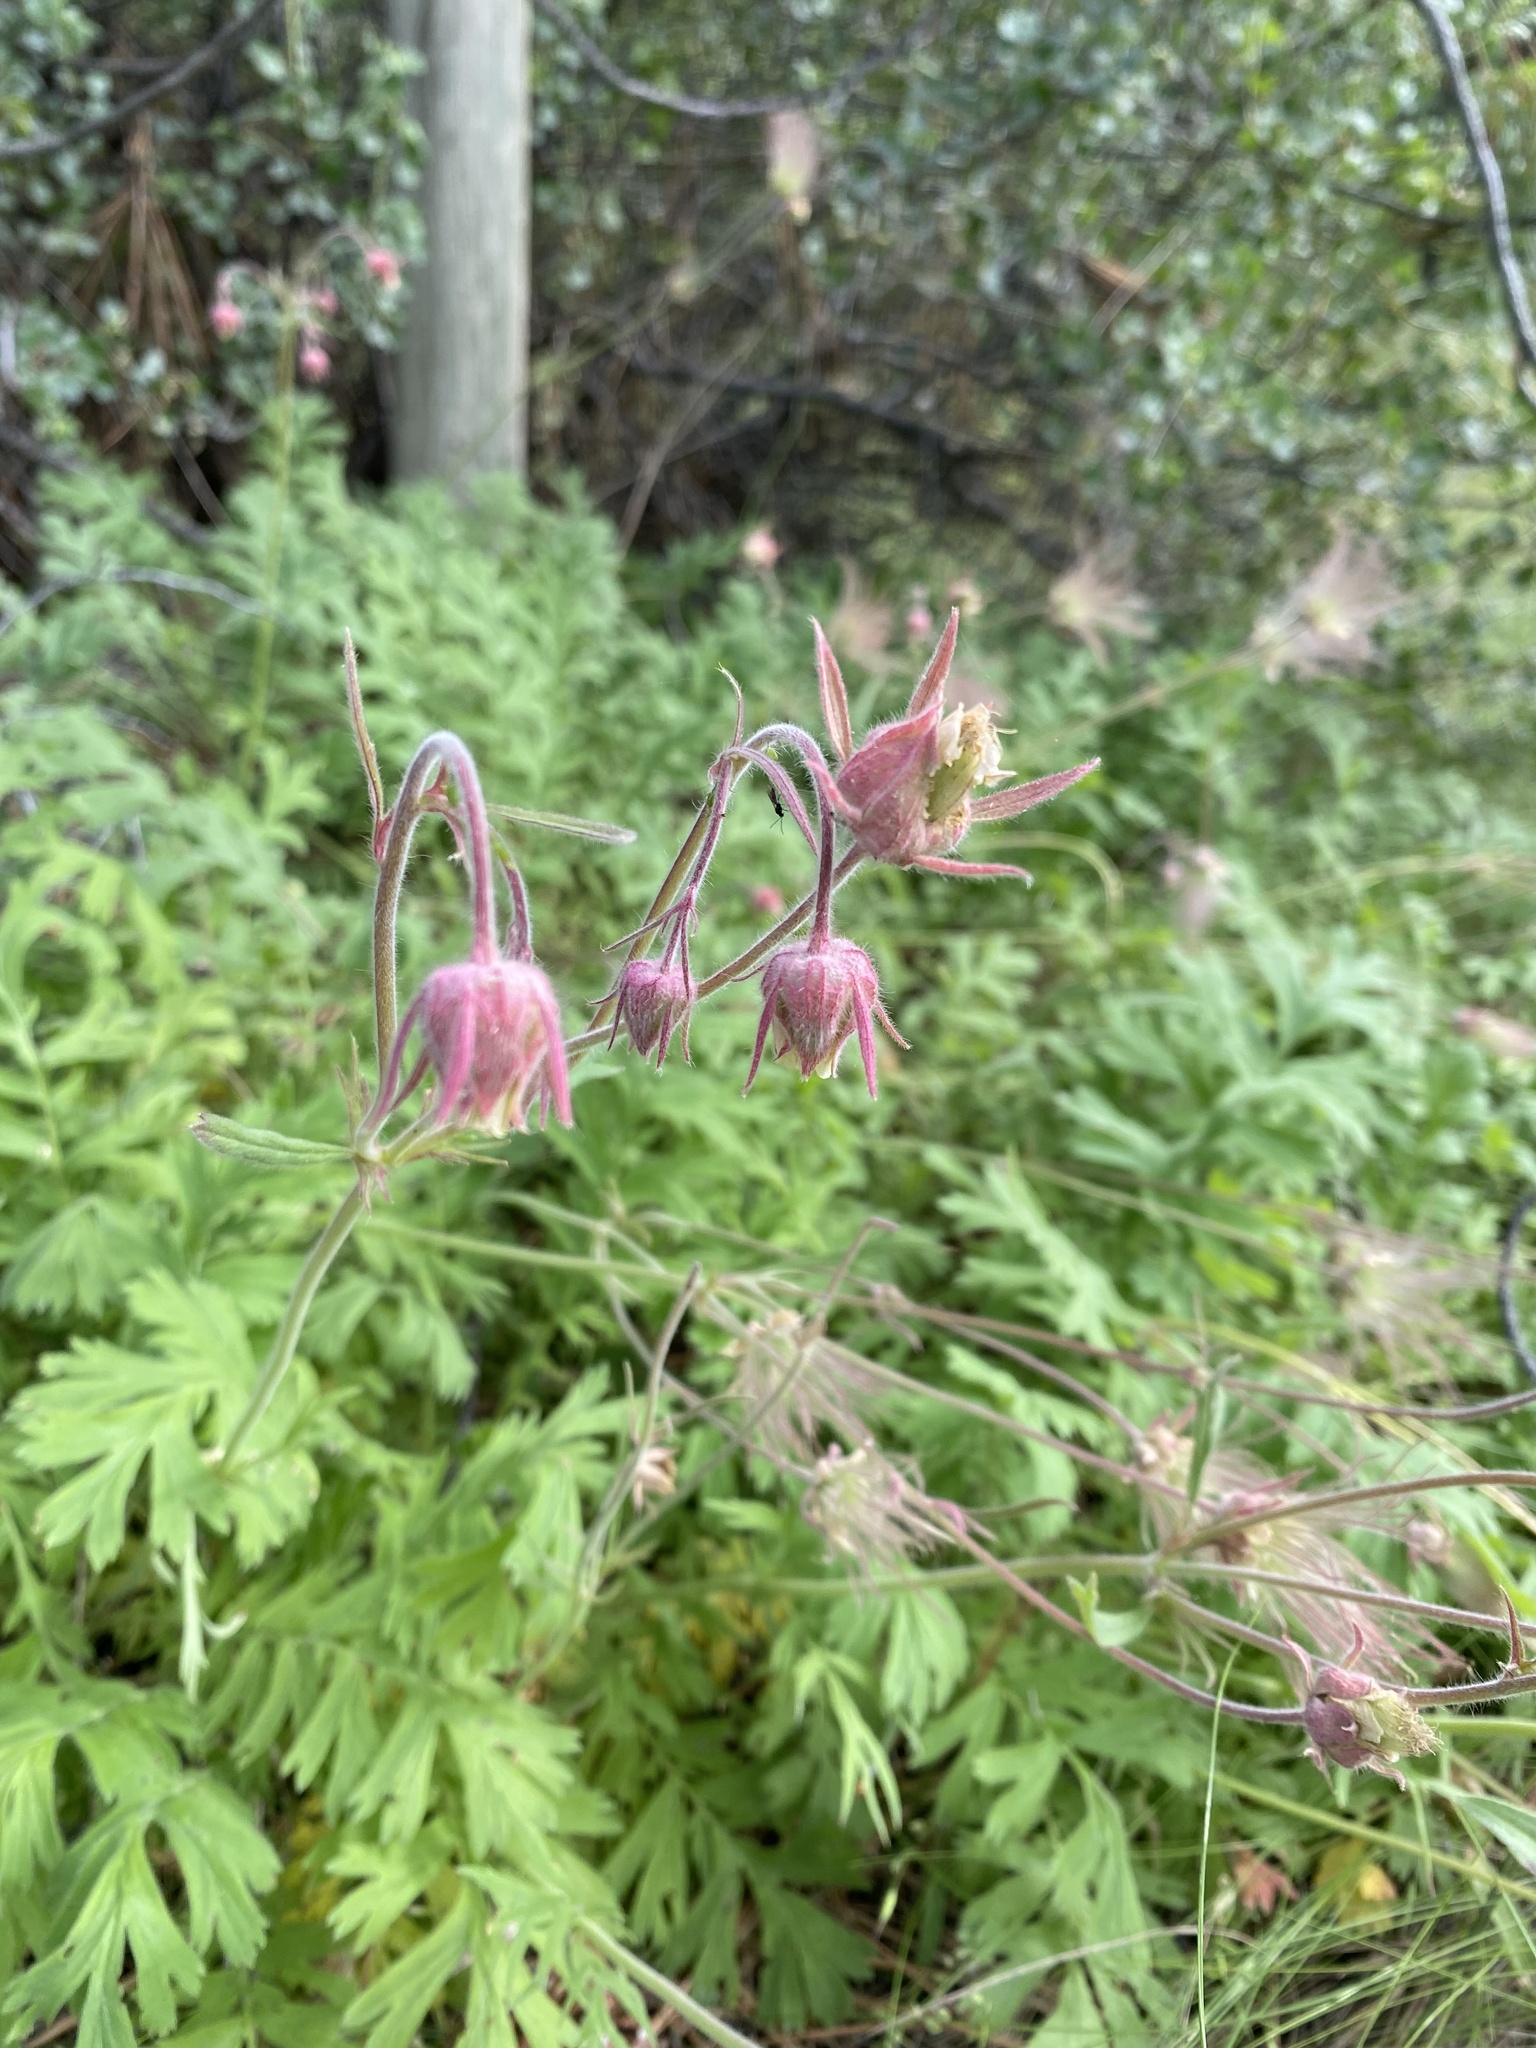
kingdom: Plantae
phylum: Tracheophyta
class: Magnoliopsida
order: Rosales
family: Rosaceae
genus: Geum
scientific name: Geum triflorum
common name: Old man's whiskers
